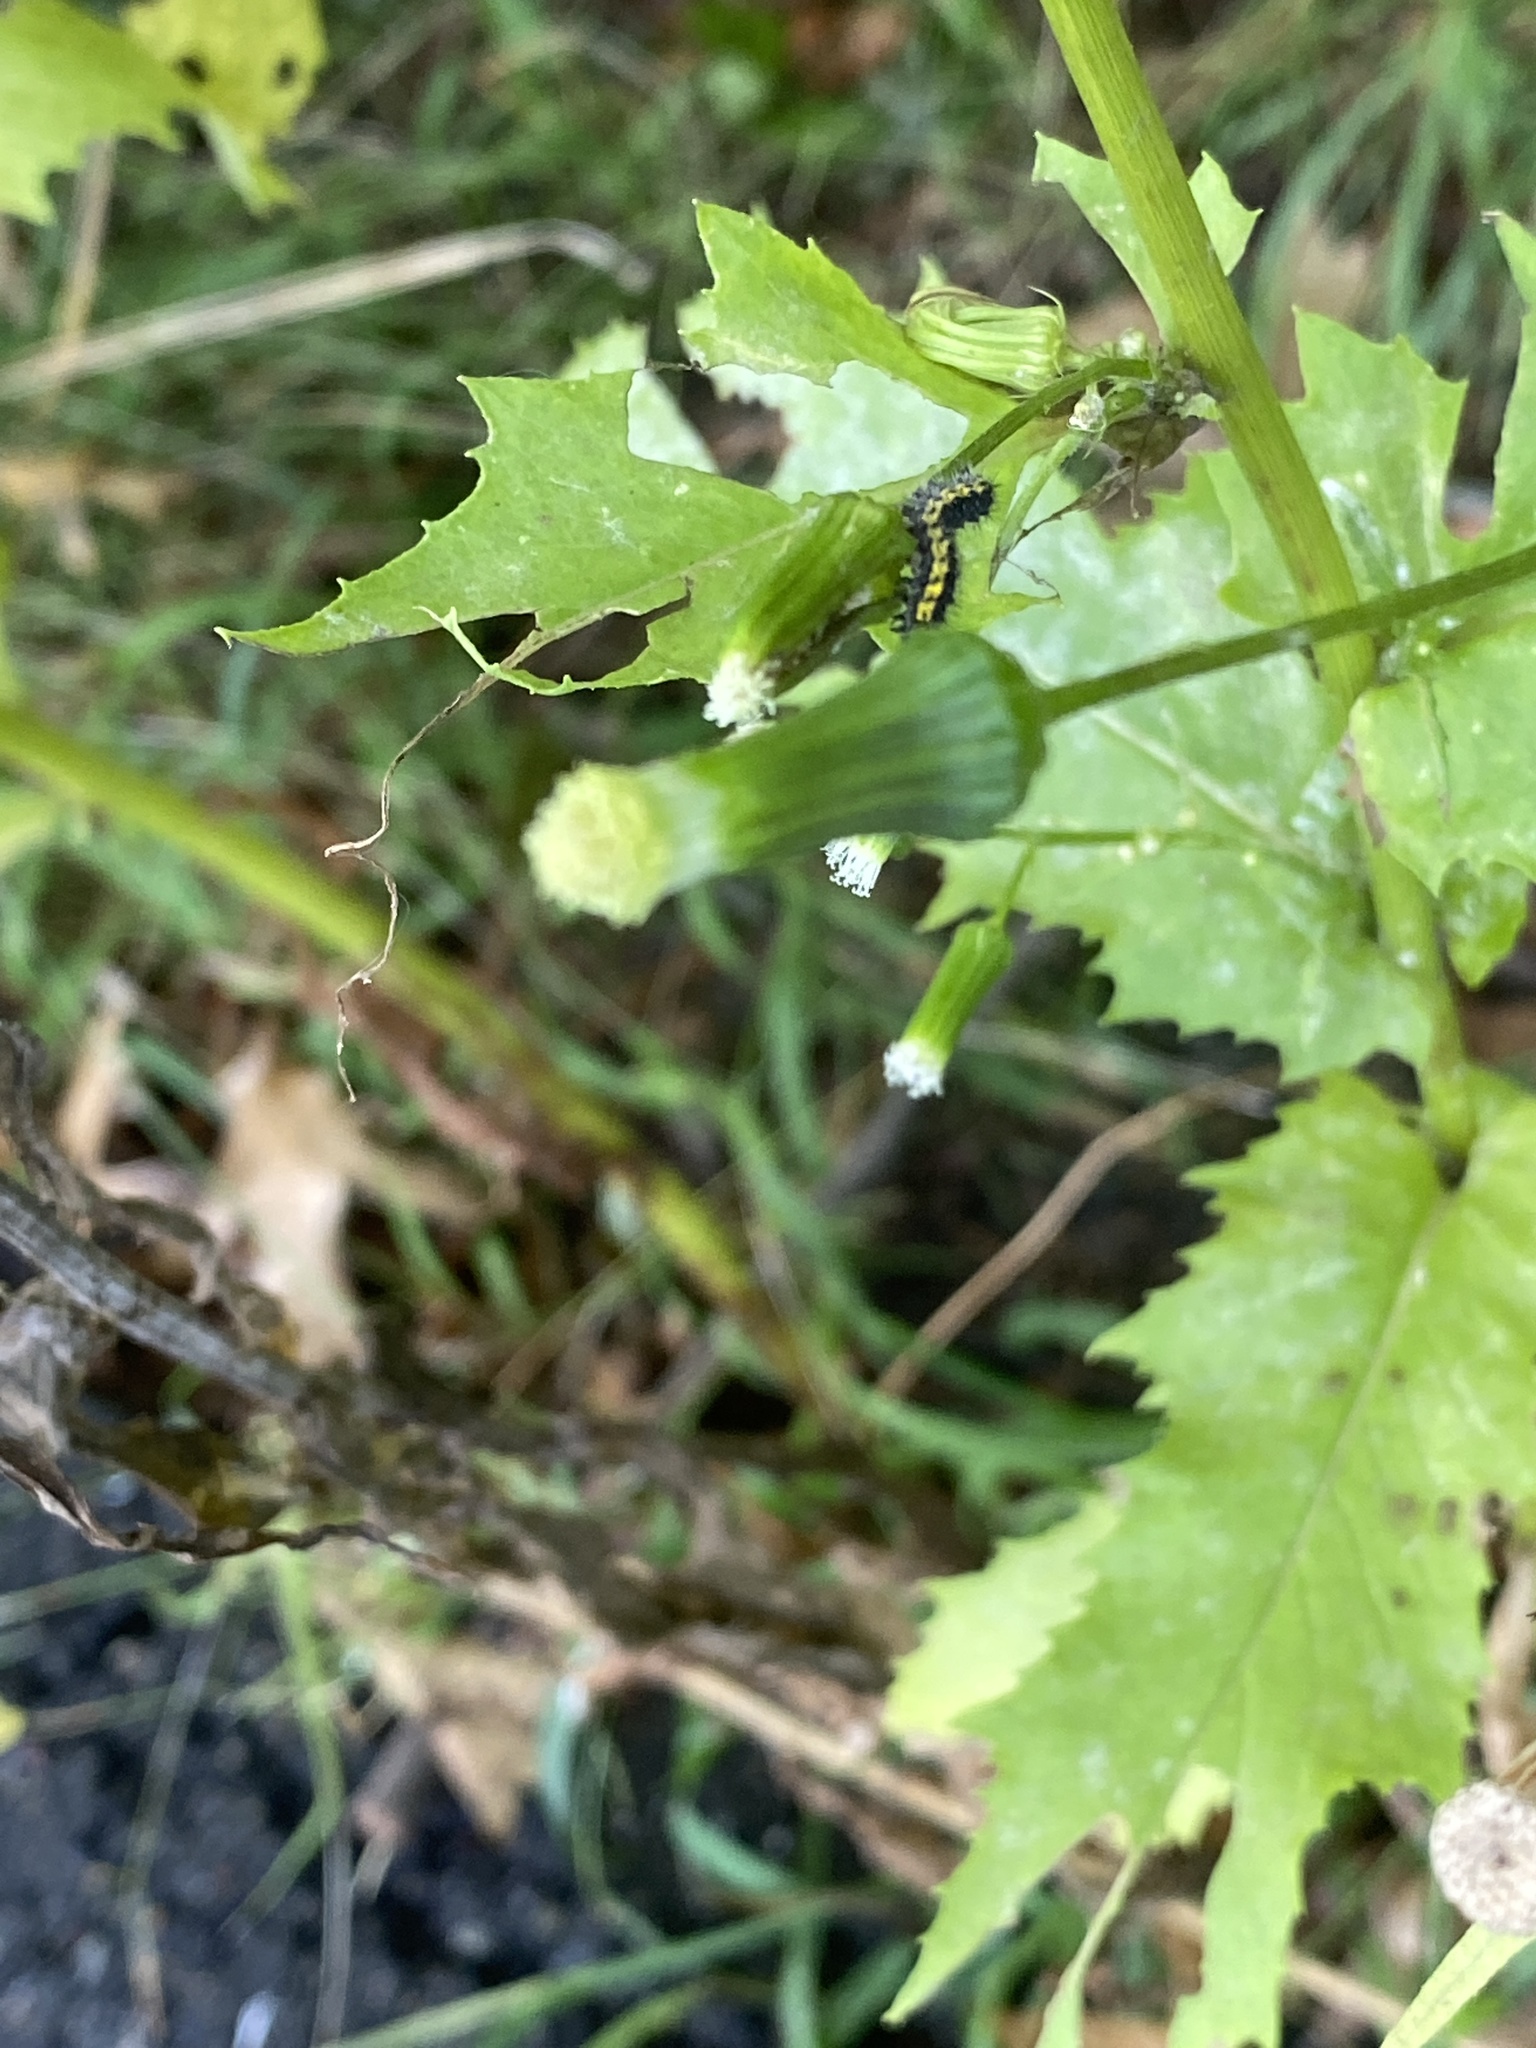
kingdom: Plantae
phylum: Tracheophyta
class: Magnoliopsida
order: Asterales
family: Asteraceae
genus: Erechtites
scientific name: Erechtites hieraciifolius
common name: American burnweed
